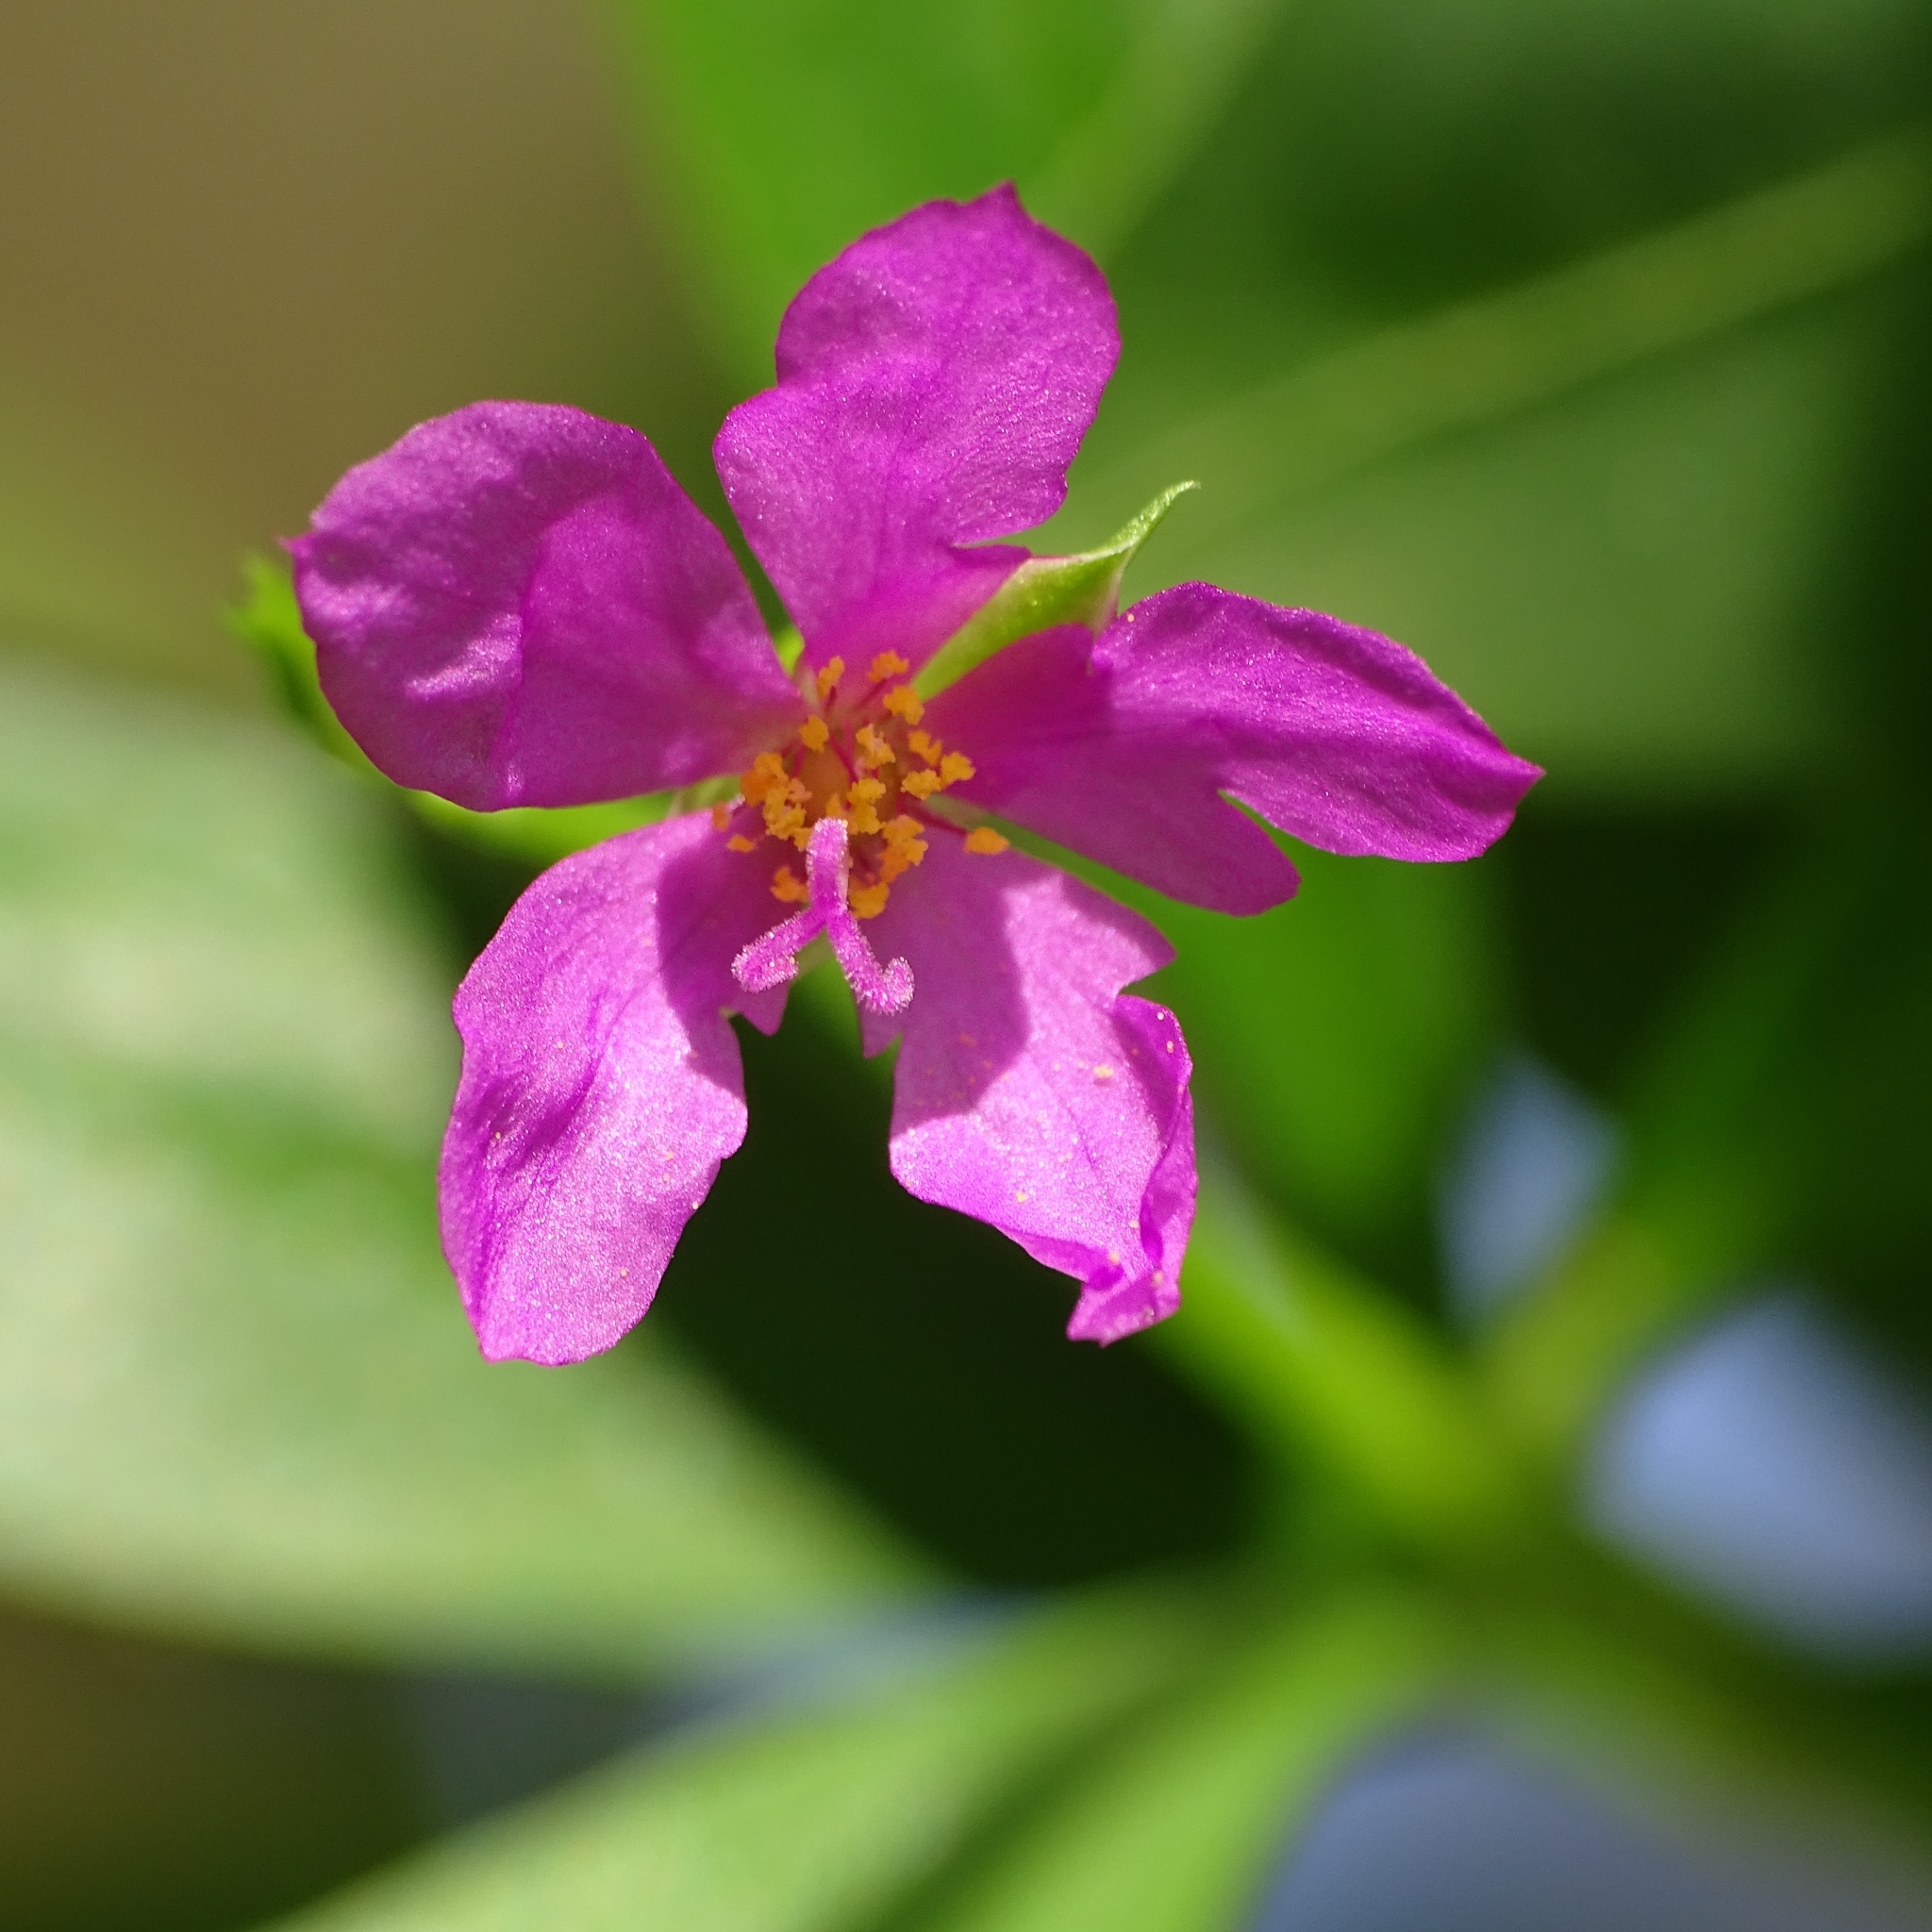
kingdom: Plantae
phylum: Tracheophyta
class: Magnoliopsida
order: Caryophyllales
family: Talinaceae
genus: Talinum
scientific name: Talinum fruticosum
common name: Verdolaga-francesa
